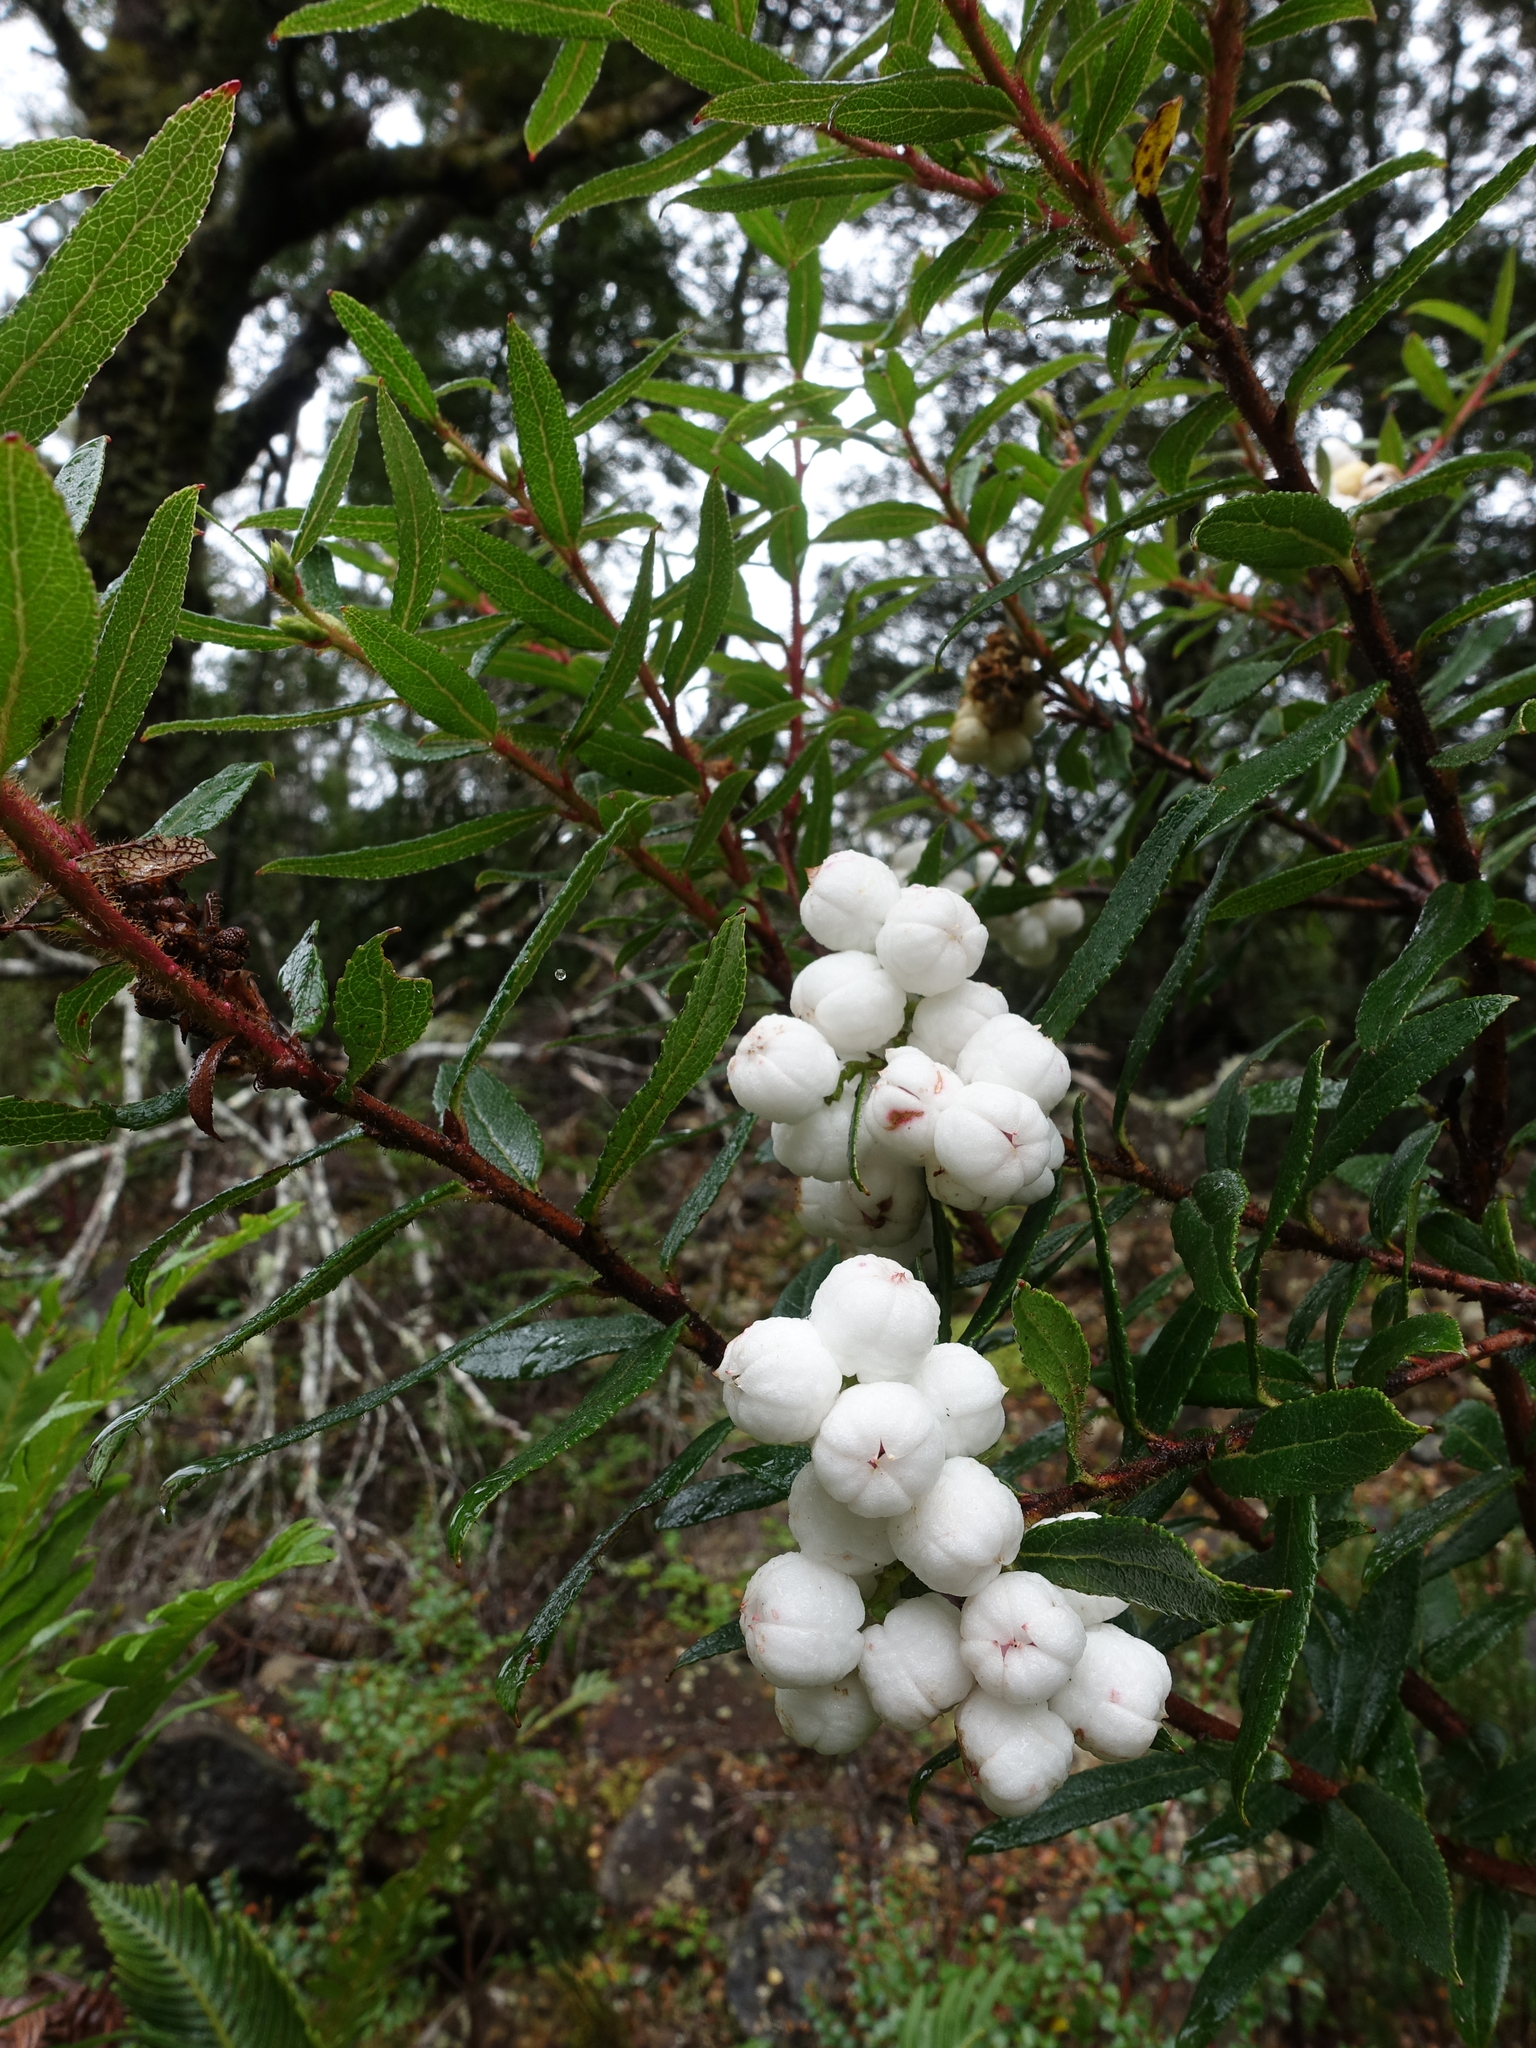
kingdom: Plantae
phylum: Tracheophyta
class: Magnoliopsida
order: Ericales
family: Ericaceae
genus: Gaultheria
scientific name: Gaultheria hispida
